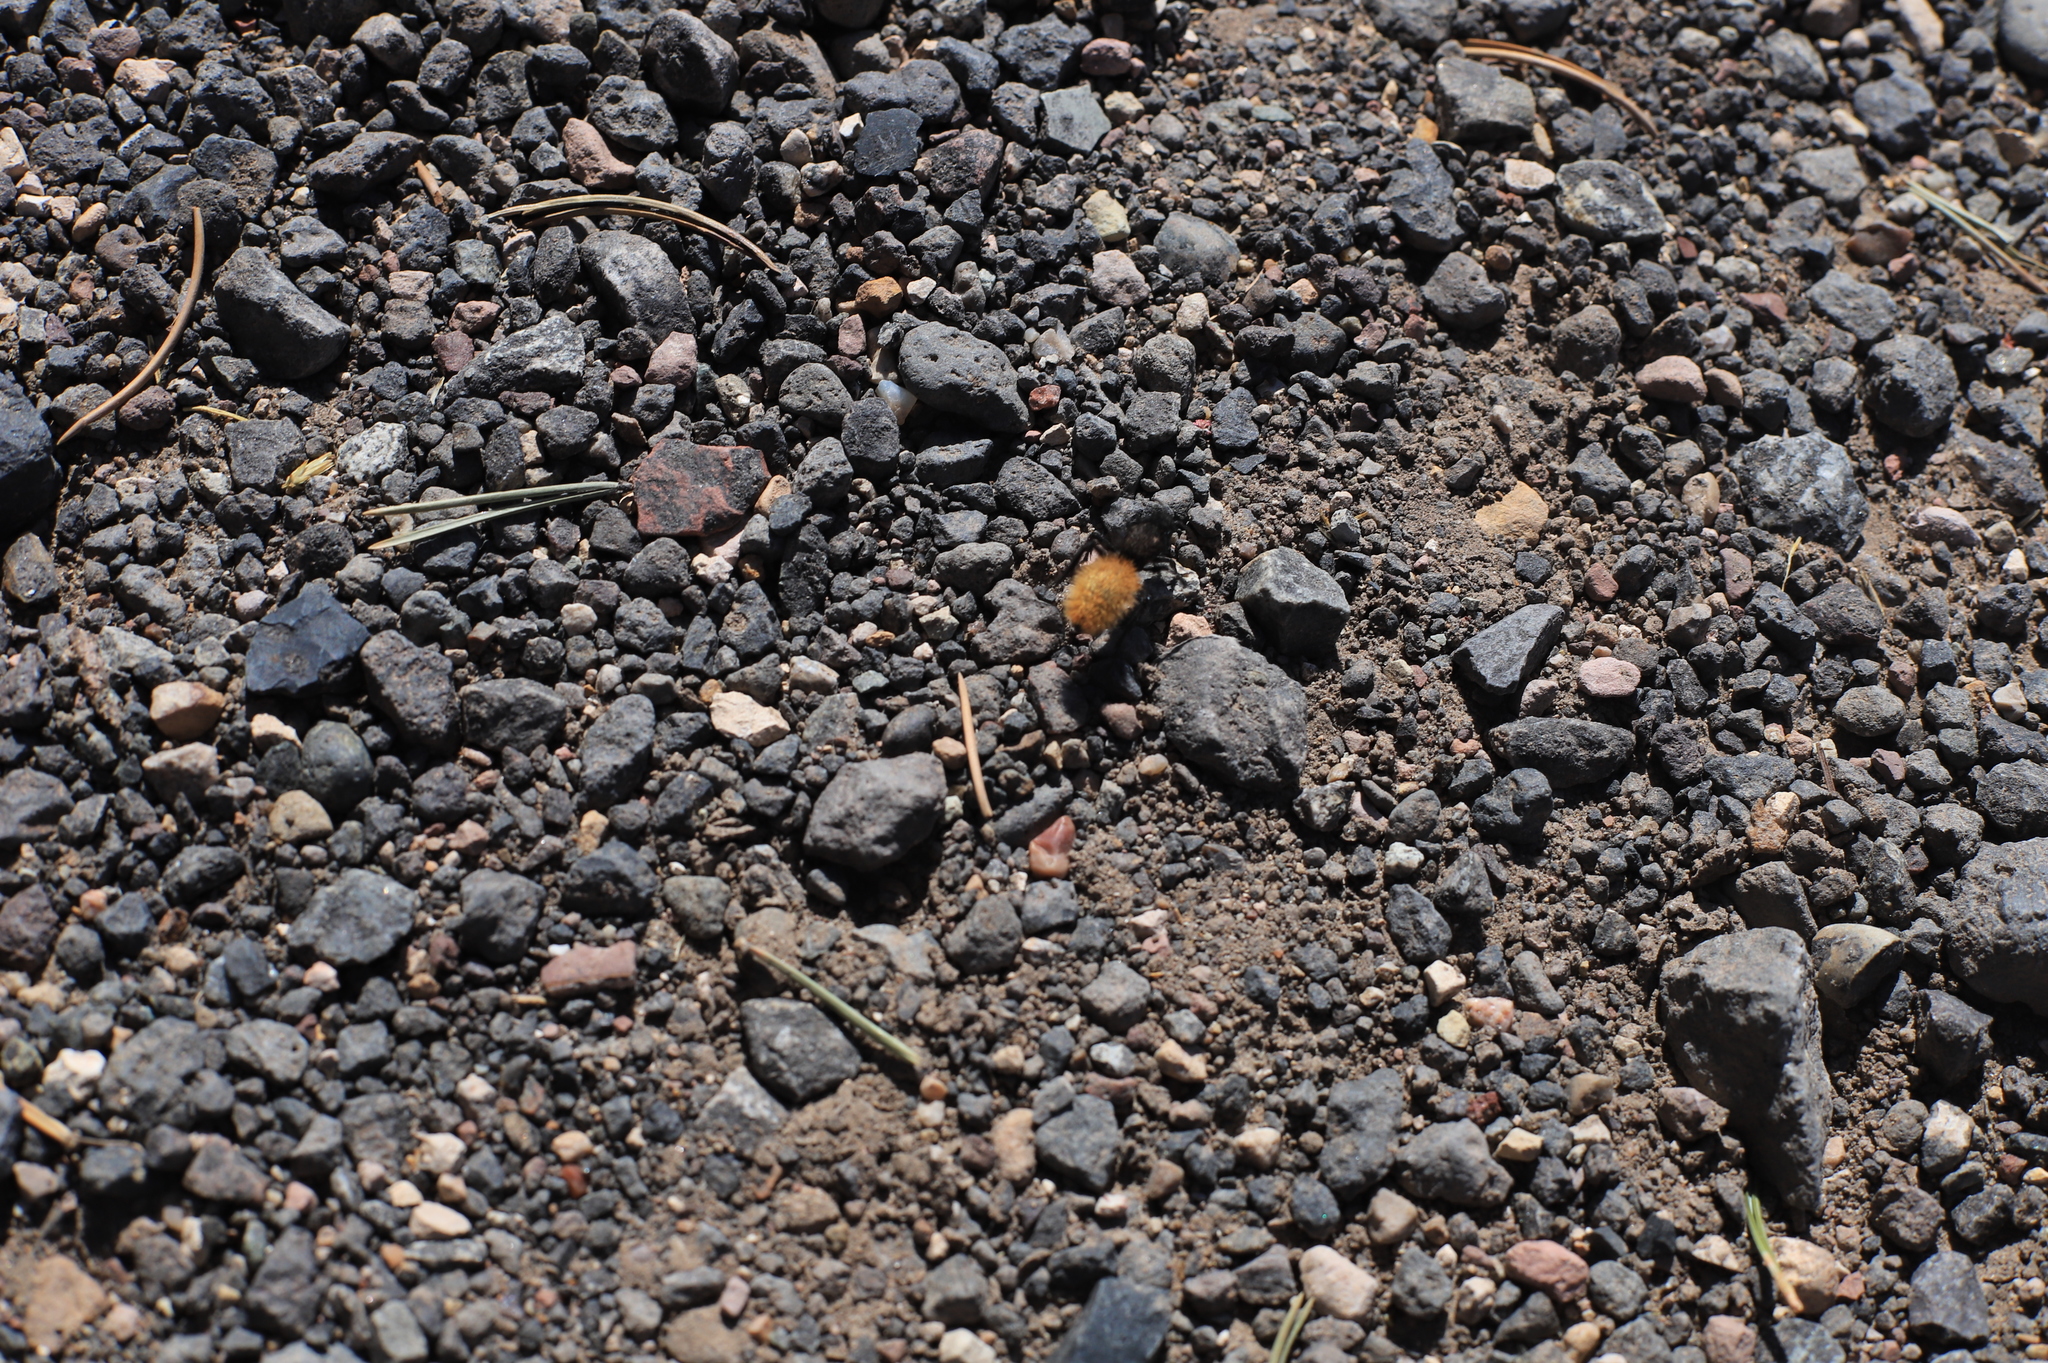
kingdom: Animalia
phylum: Arthropoda
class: Insecta
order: Hymenoptera
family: Mutillidae
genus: Dasymutilla
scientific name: Dasymutilla
